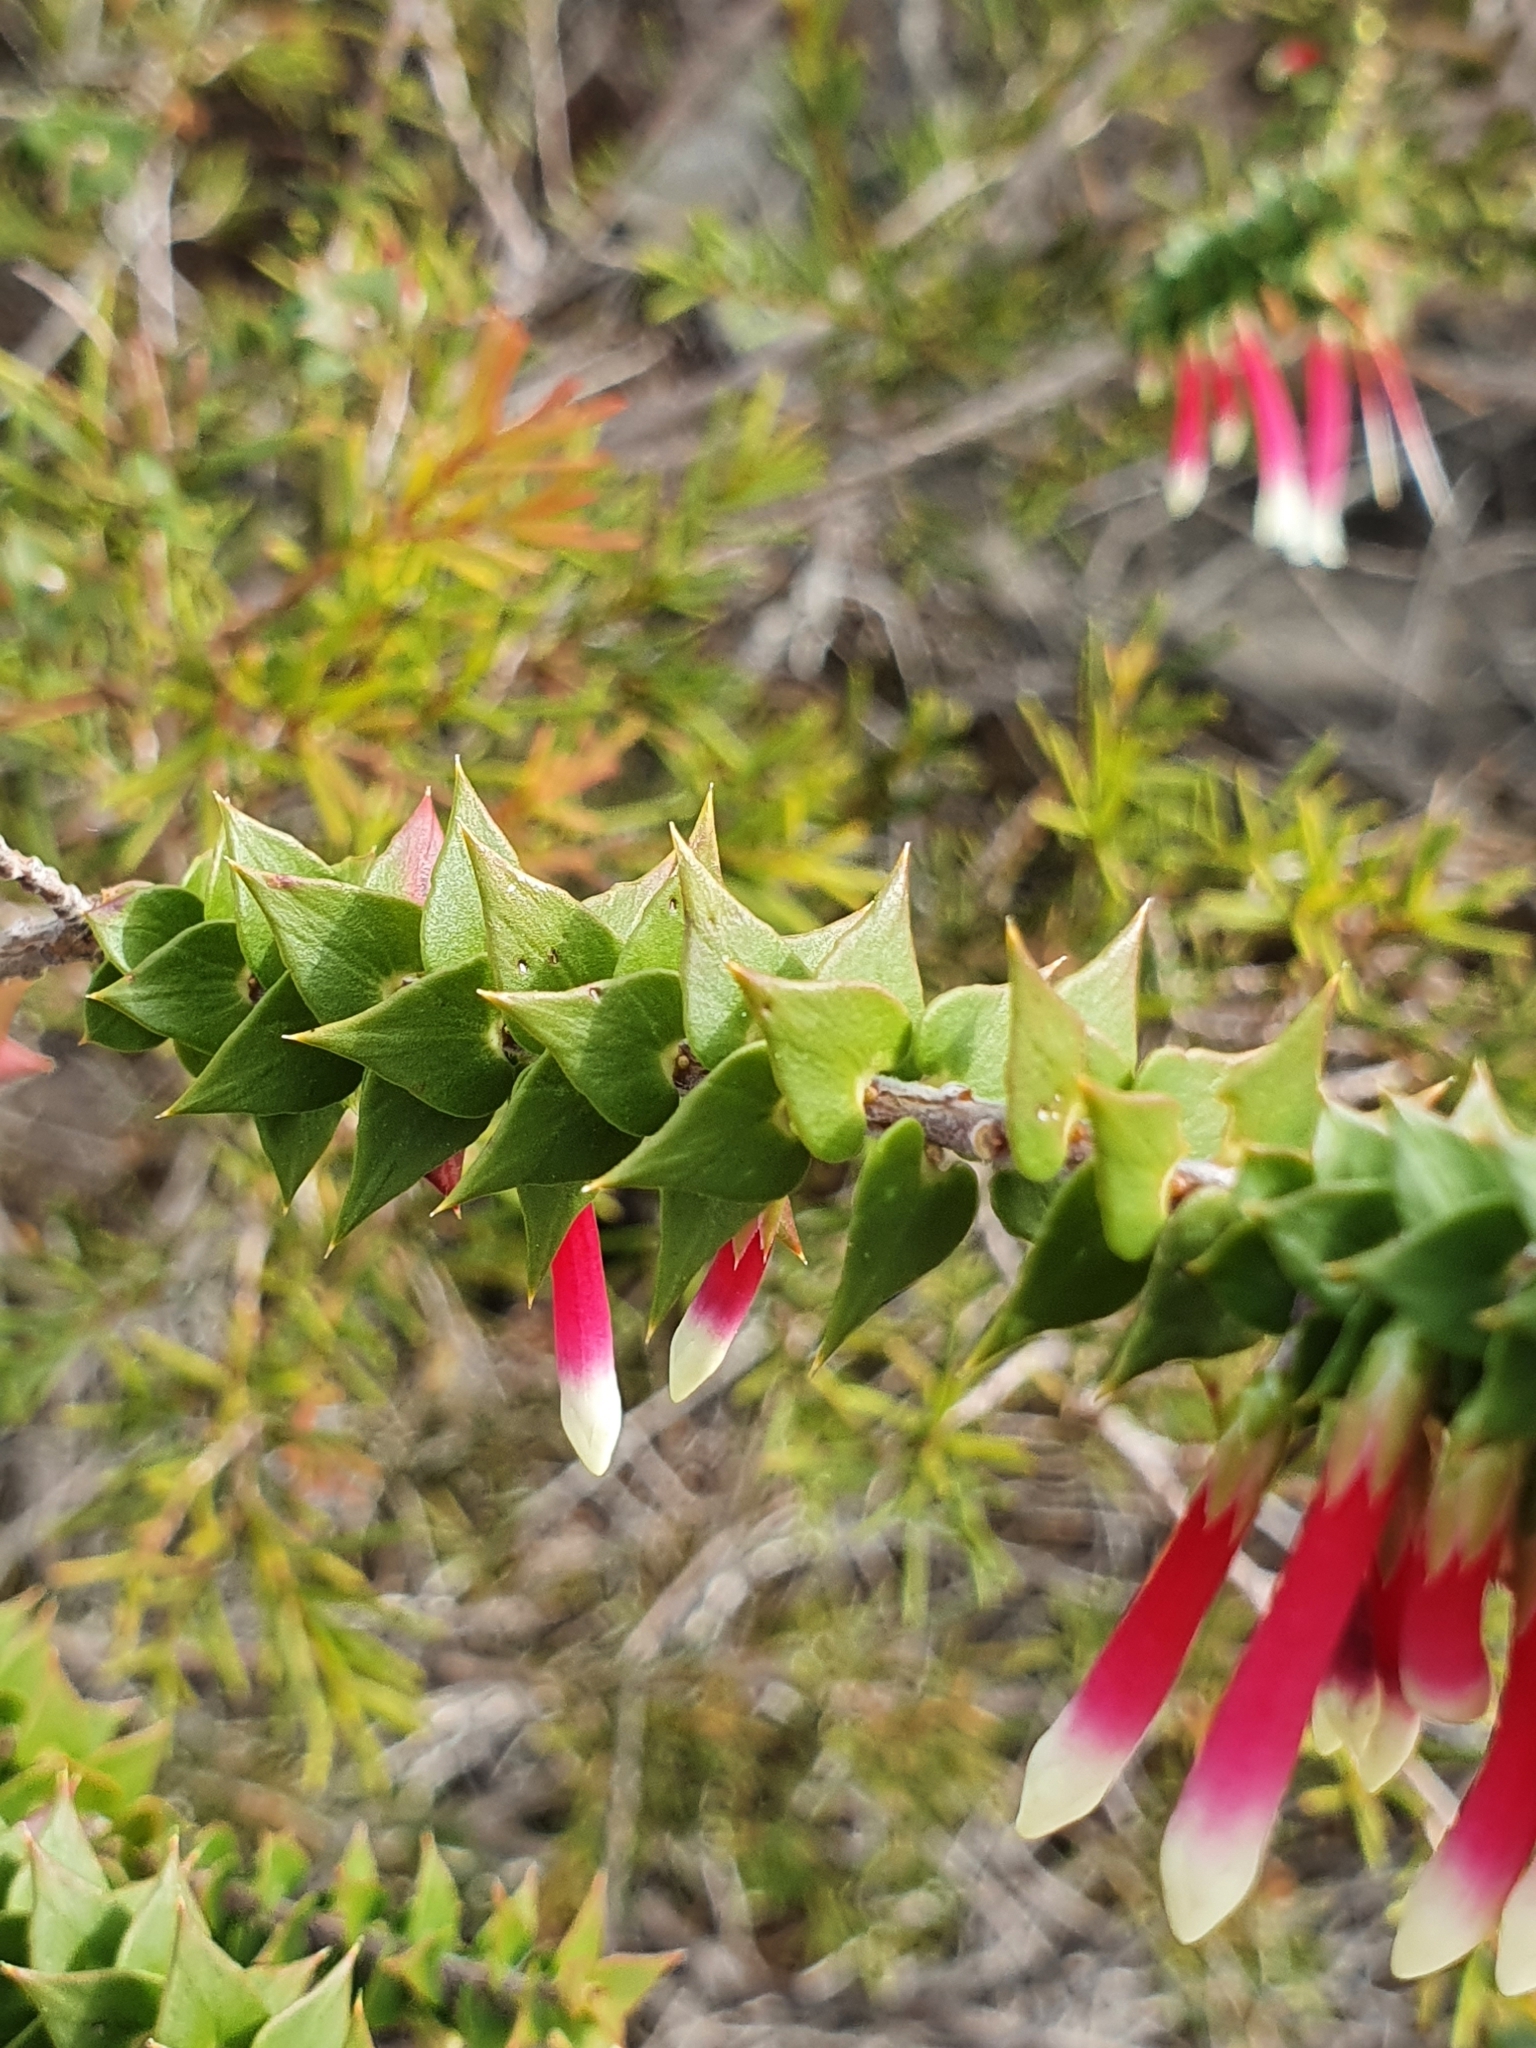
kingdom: Plantae
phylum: Tracheophyta
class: Magnoliopsida
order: Ericales
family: Ericaceae
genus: Epacris
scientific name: Epacris longiflora
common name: Fuchsia-heath
